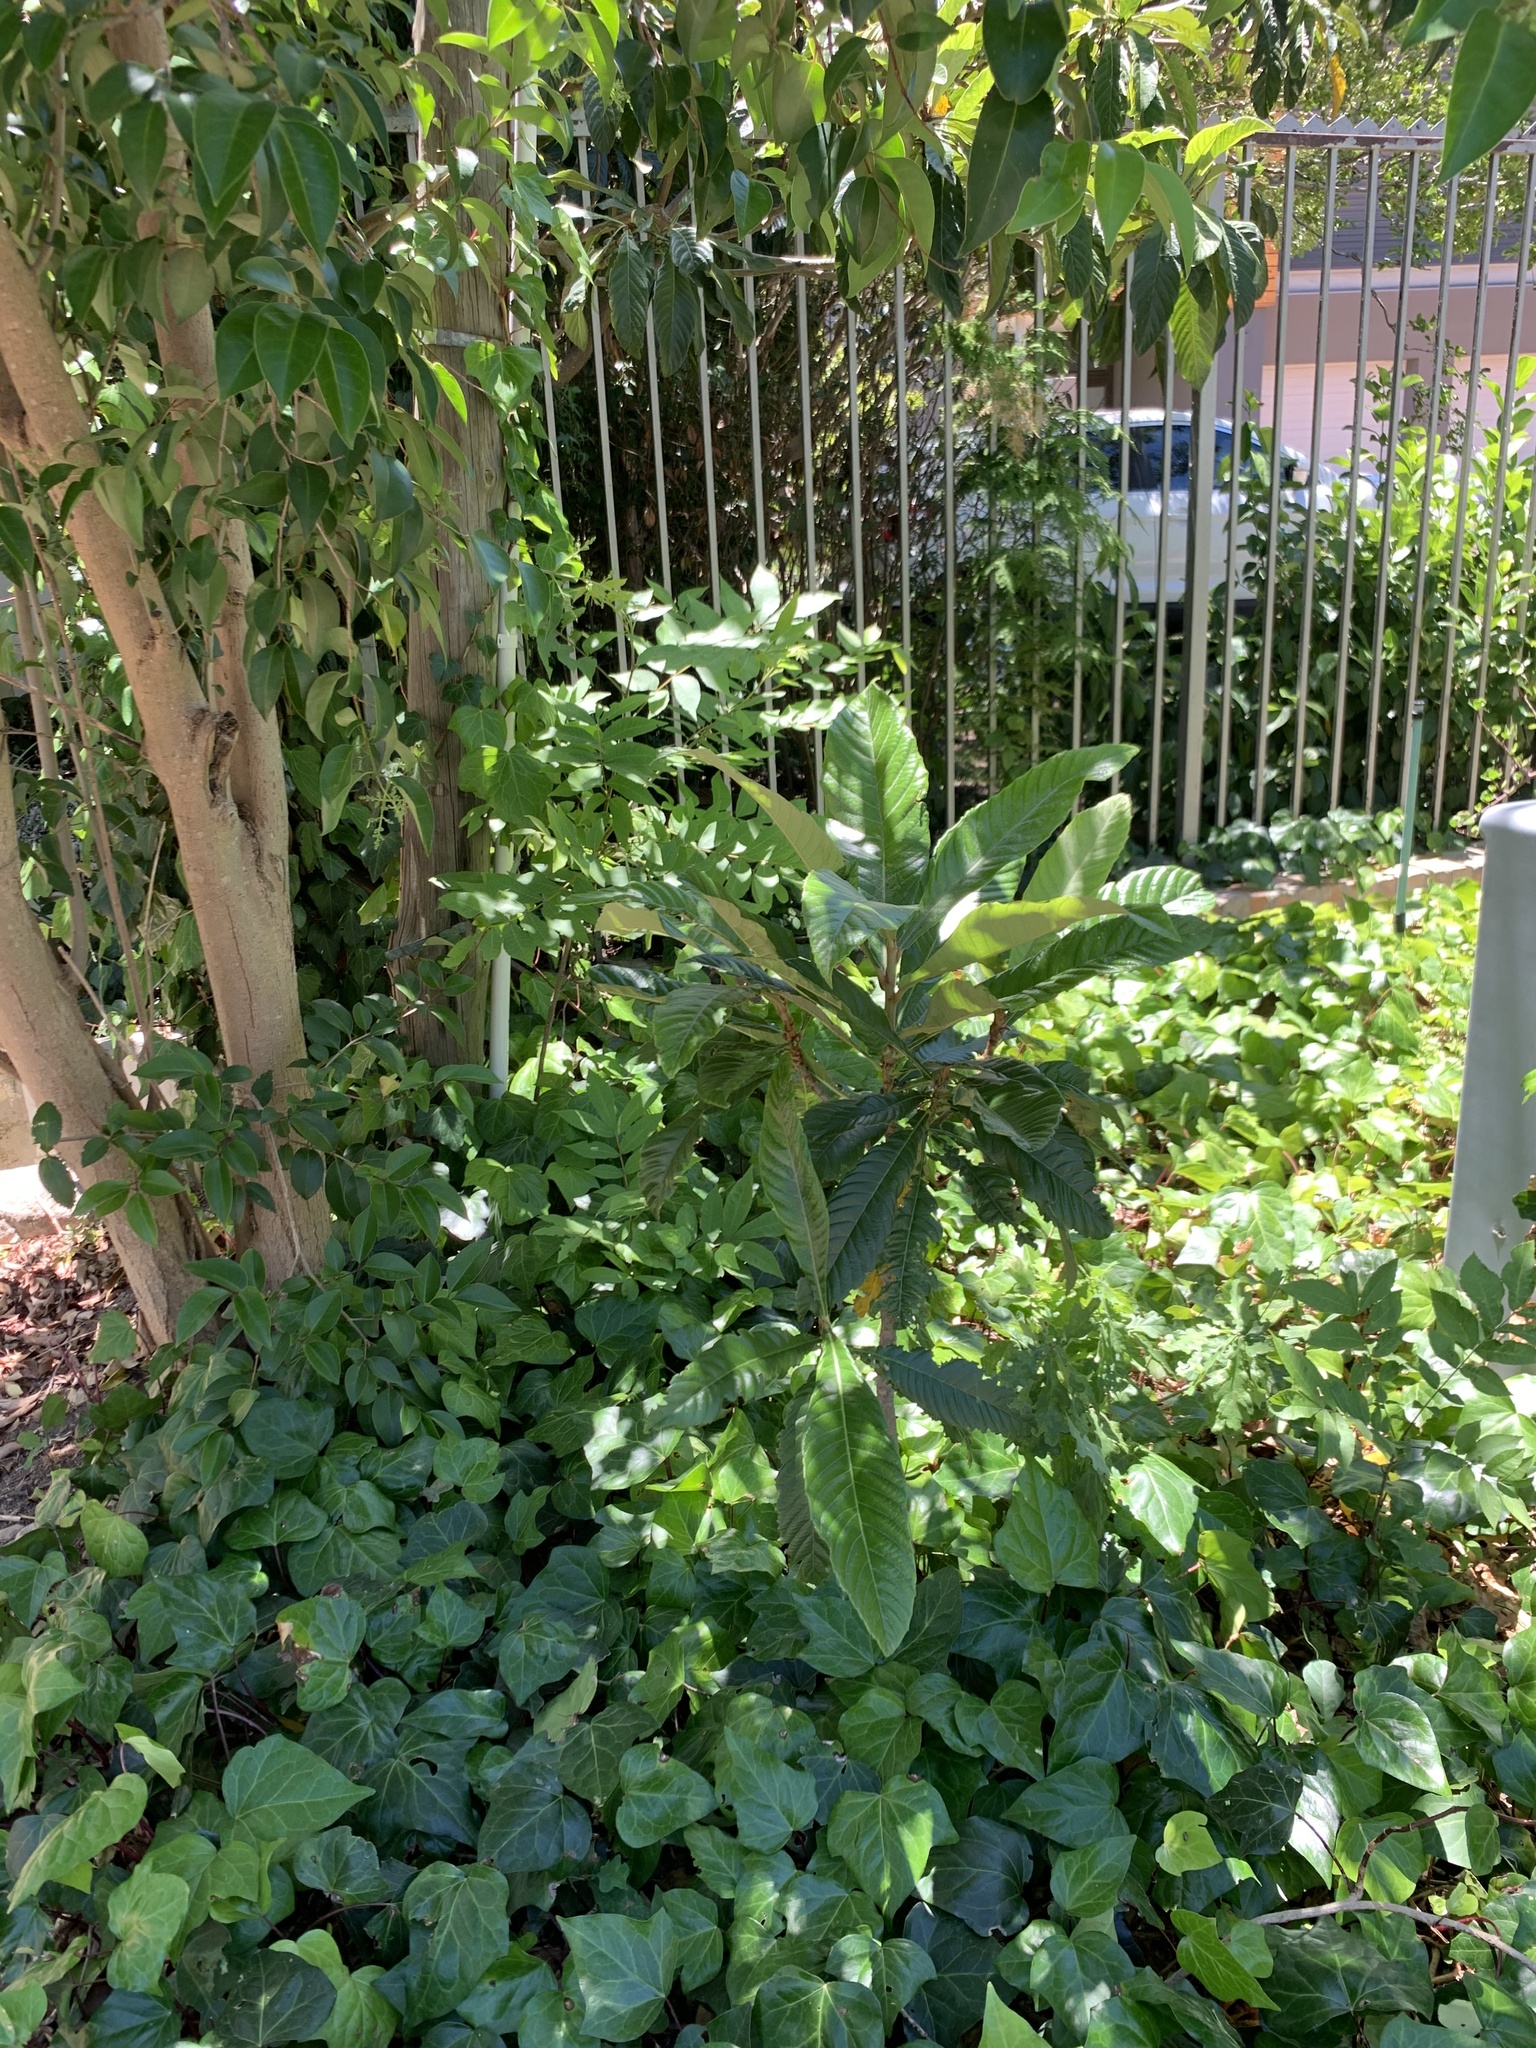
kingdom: Plantae
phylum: Tracheophyta
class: Magnoliopsida
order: Rosales
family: Rosaceae
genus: Rhaphiolepis
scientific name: Rhaphiolepis bibas
